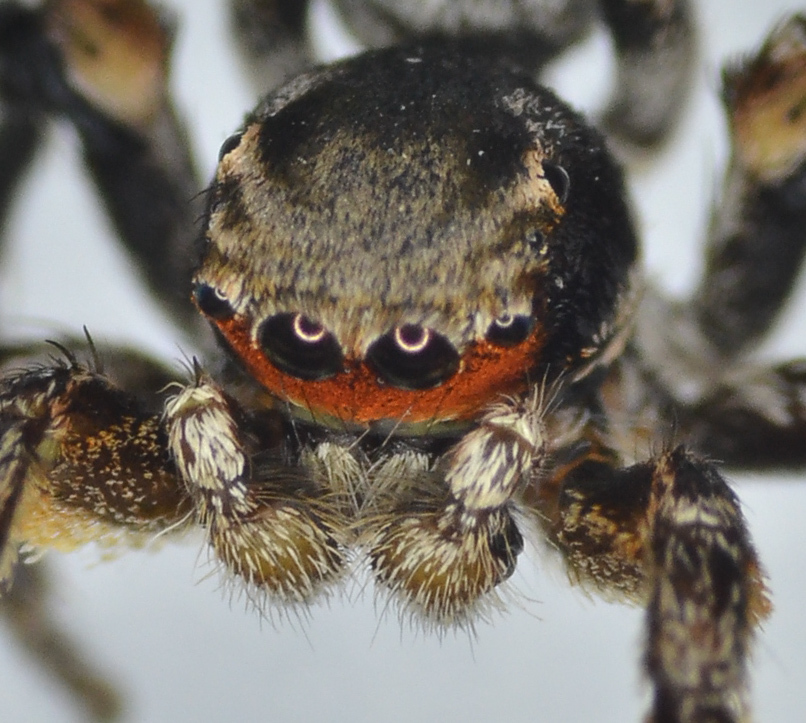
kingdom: Animalia
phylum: Arthropoda
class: Arachnida
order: Araneae
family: Salticidae
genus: Habronattus
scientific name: Habronattus ballatoris
